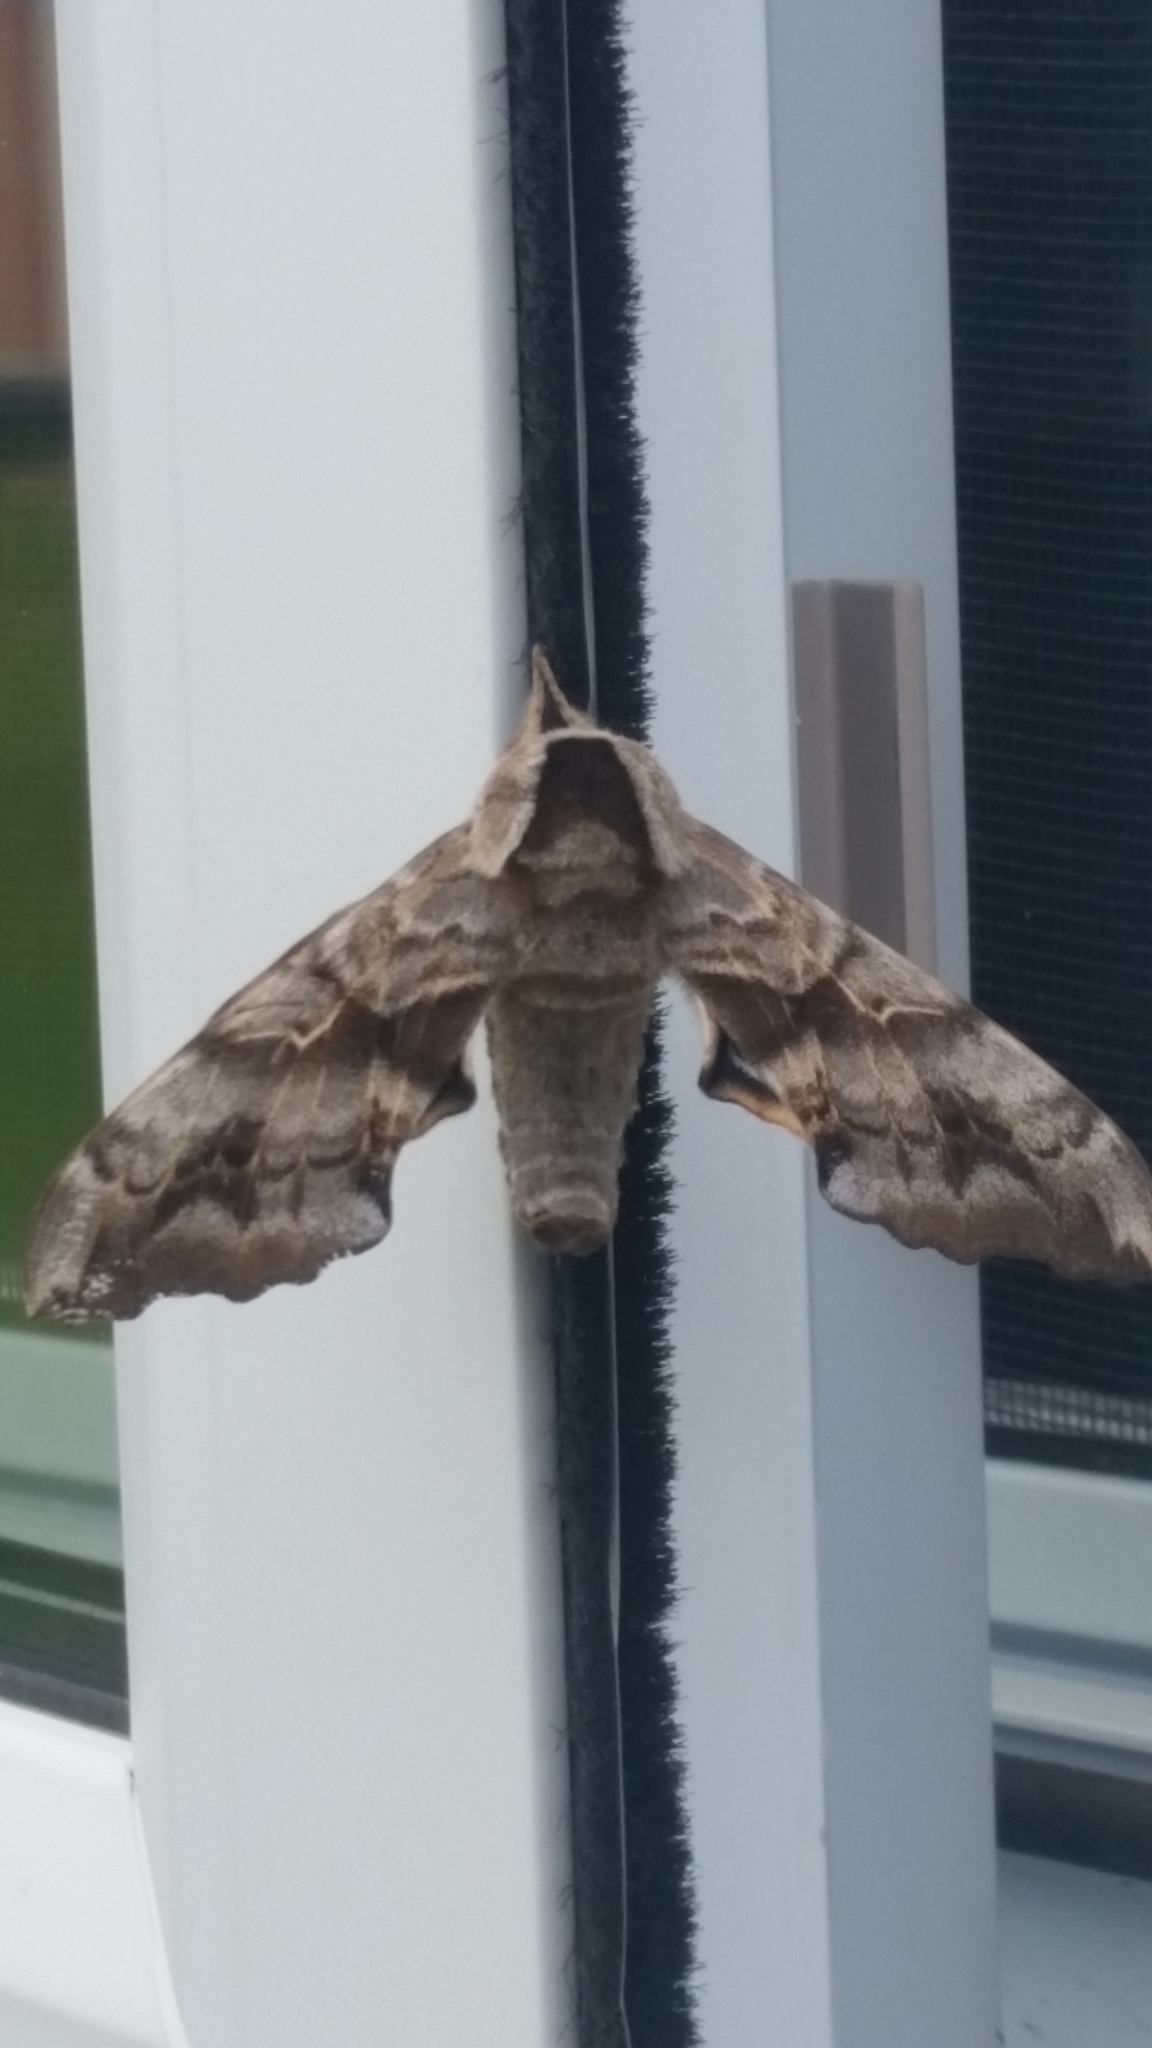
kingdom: Animalia
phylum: Arthropoda
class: Insecta
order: Lepidoptera
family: Sphingidae
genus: Smerinthus
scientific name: Smerinthus cerisyi
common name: Cerisy's sphinx moth
